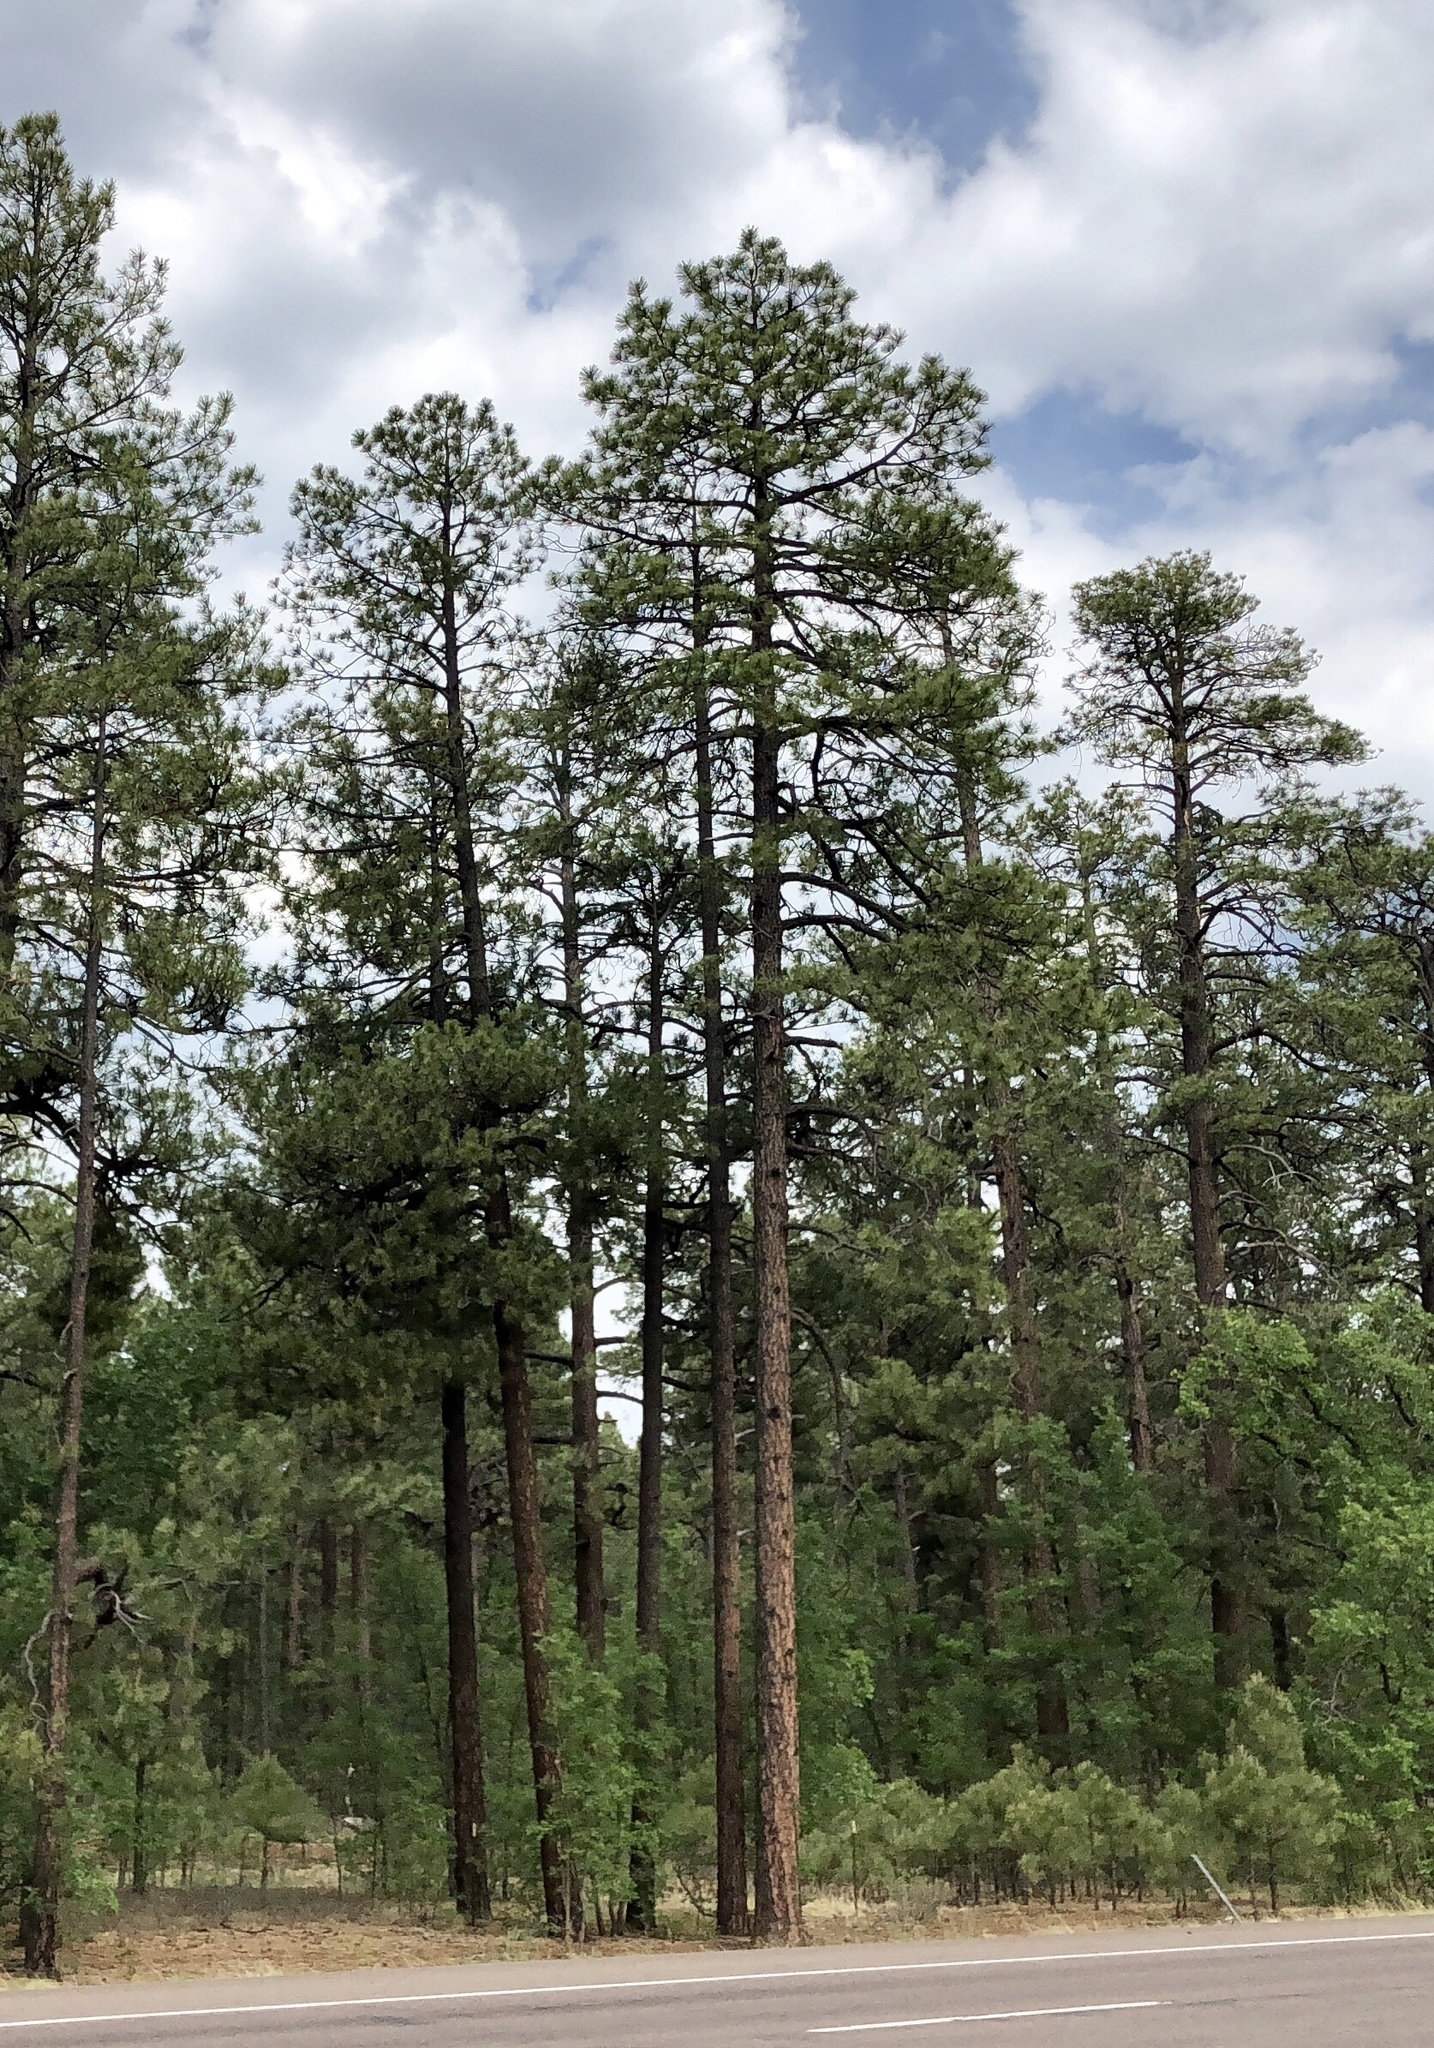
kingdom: Plantae
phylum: Tracheophyta
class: Pinopsida
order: Pinales
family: Pinaceae
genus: Pinus
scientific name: Pinus ponderosa
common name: Western yellow-pine
